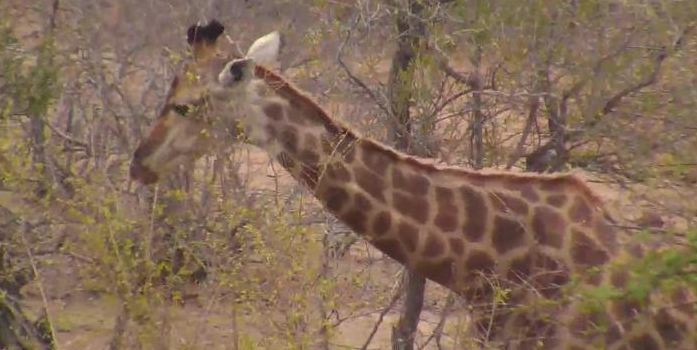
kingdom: Animalia
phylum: Chordata
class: Mammalia
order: Artiodactyla
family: Giraffidae
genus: Giraffa
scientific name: Giraffa giraffa
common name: Southern giraffe
